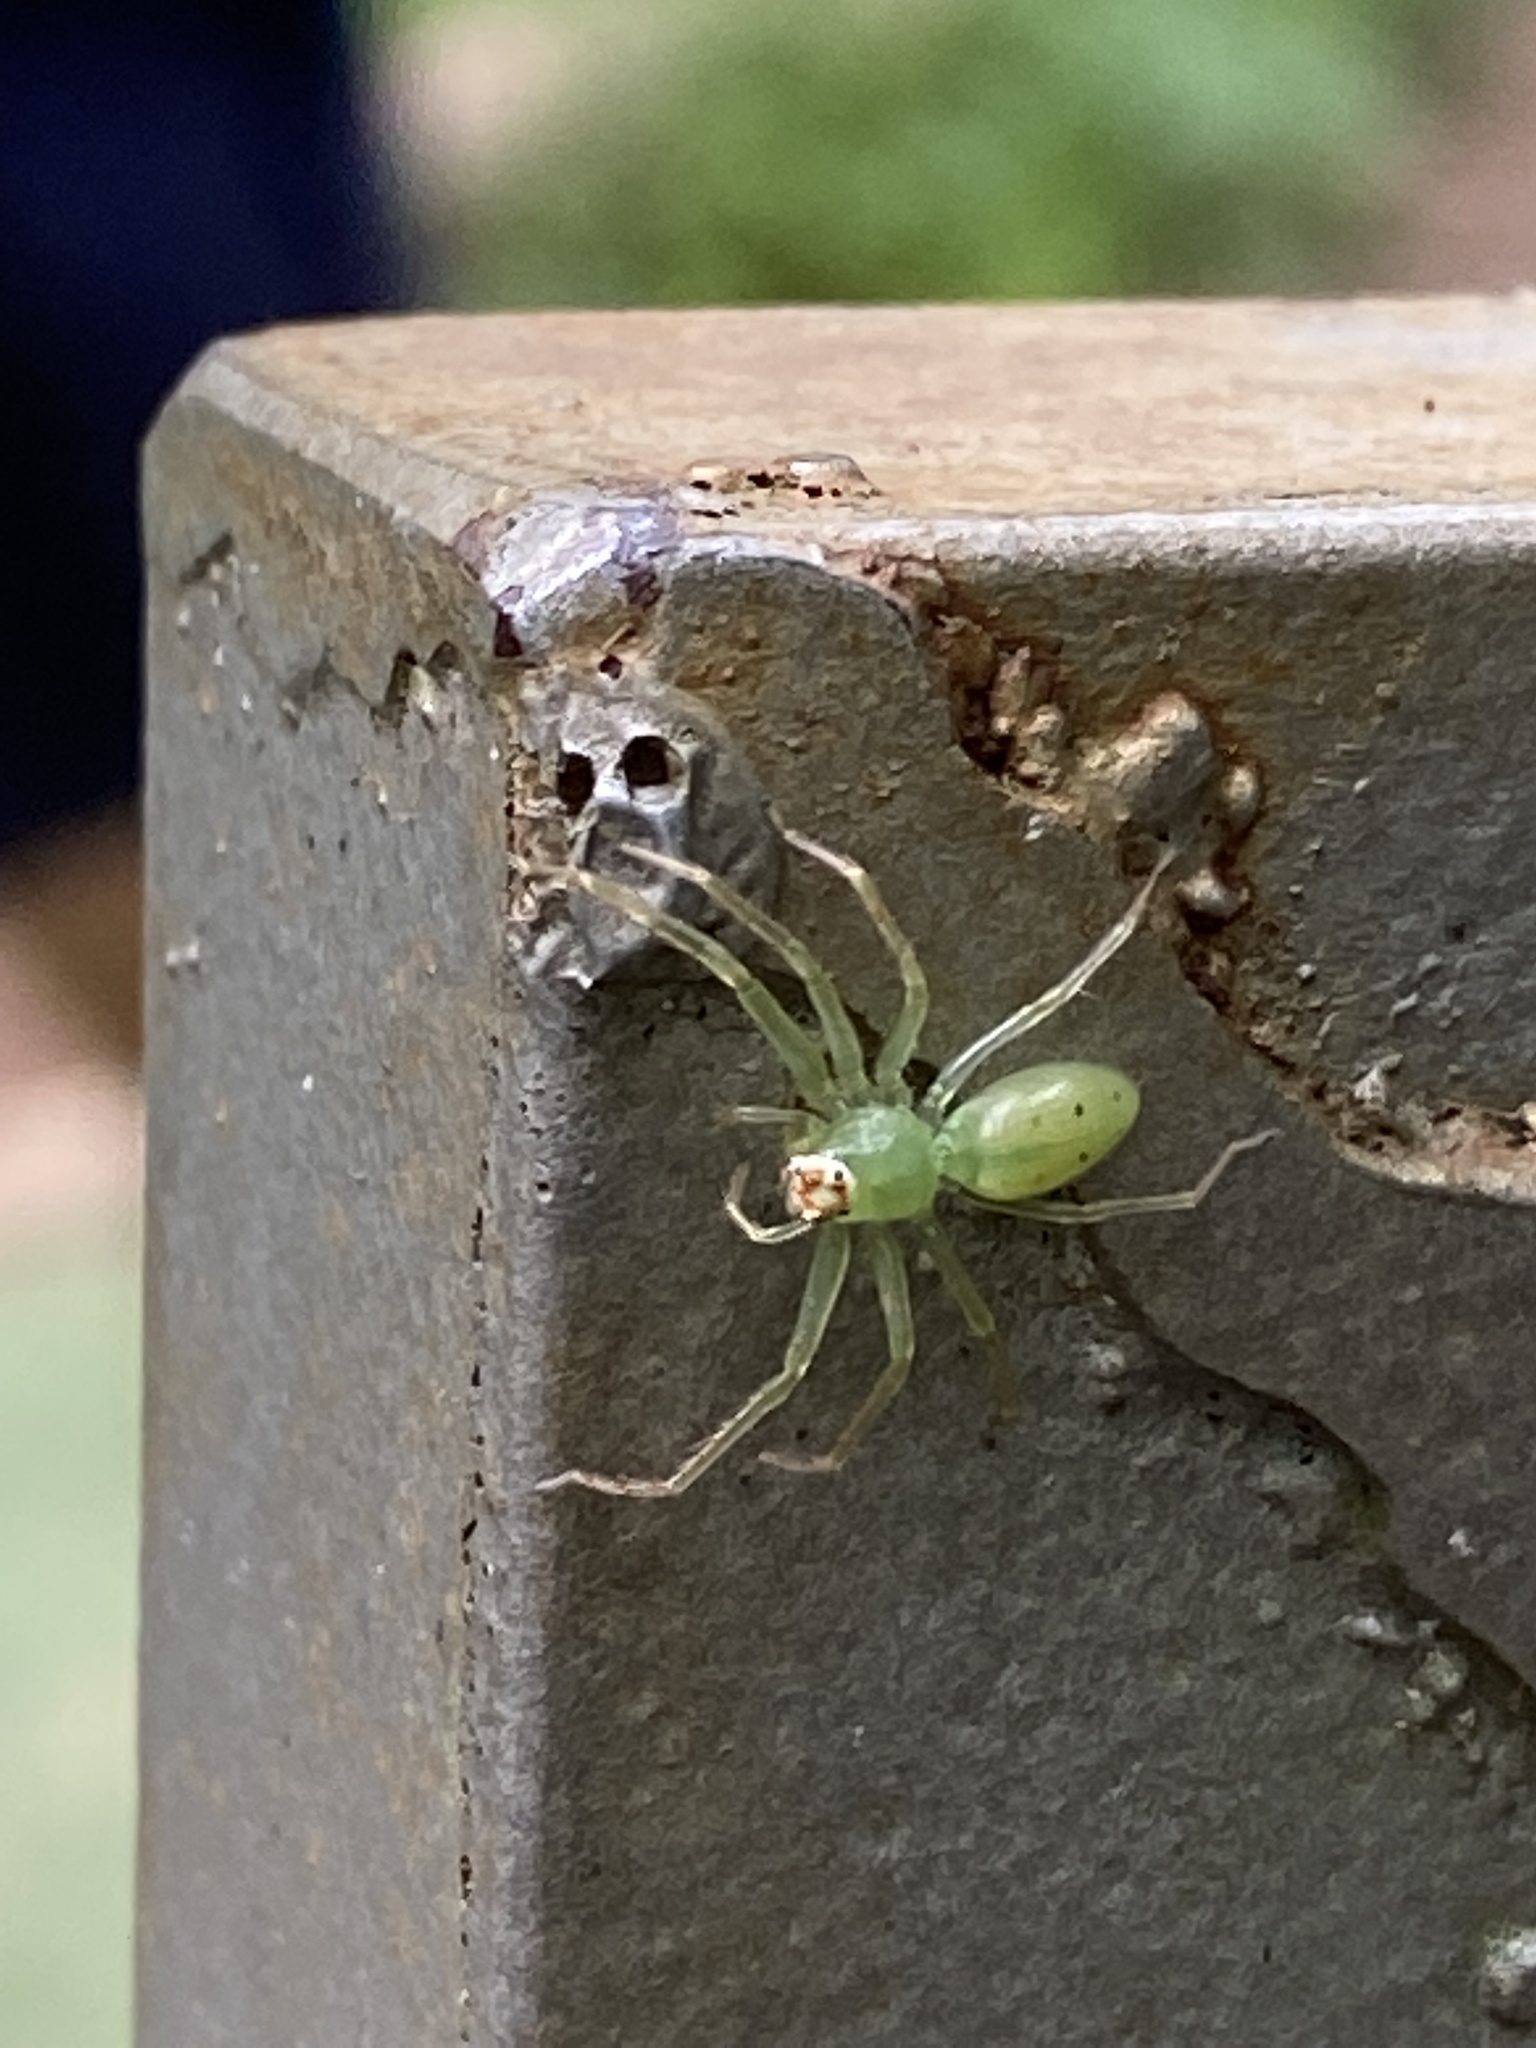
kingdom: Animalia
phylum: Arthropoda
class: Arachnida
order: Araneae
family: Salticidae
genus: Lyssomanes
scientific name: Lyssomanes viridis
